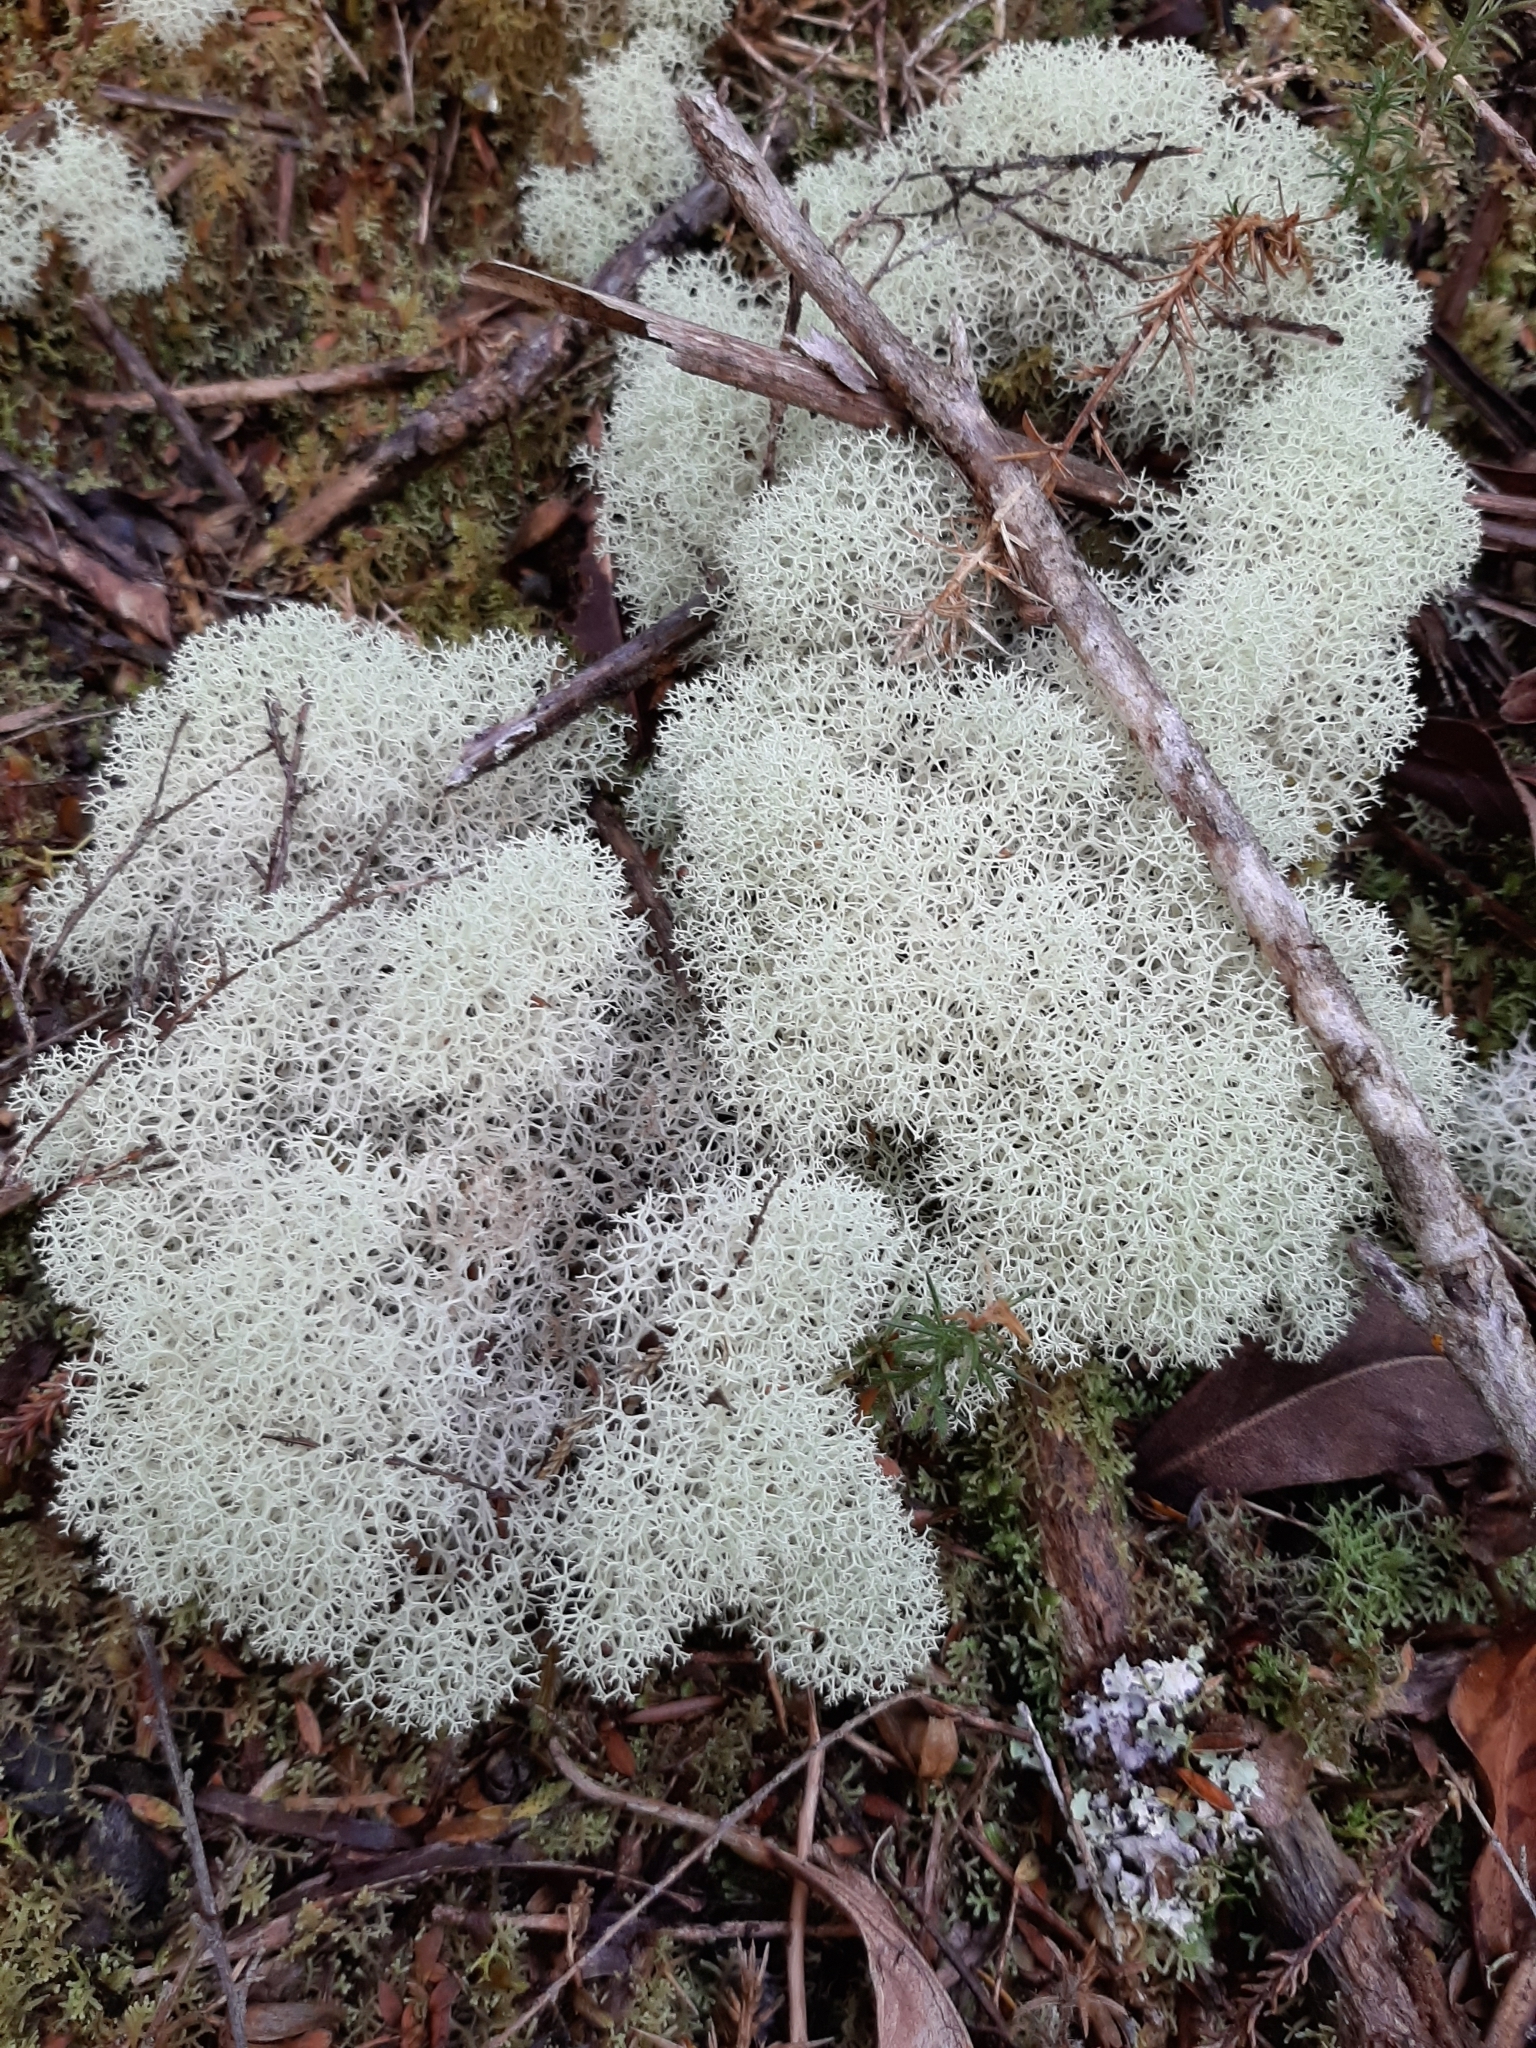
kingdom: Fungi
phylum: Ascomycota
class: Lecanoromycetes
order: Lecanorales
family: Cladoniaceae
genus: Cladonia
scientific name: Cladonia confusa
